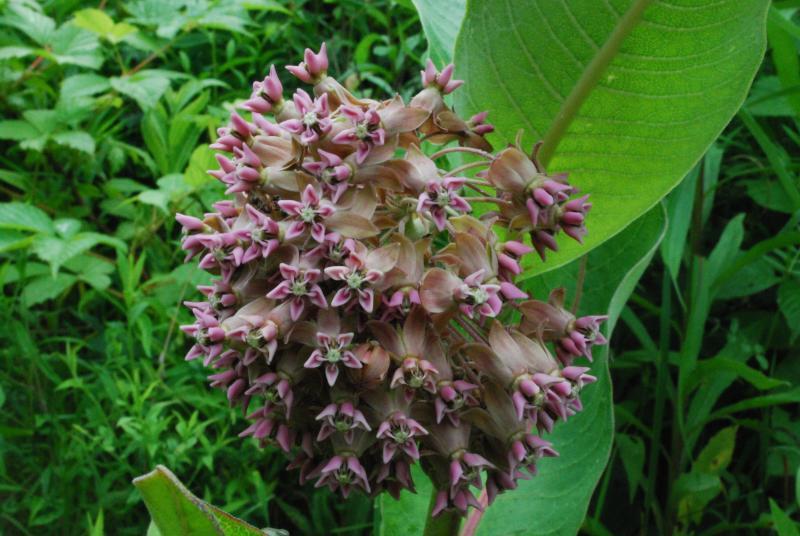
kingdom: Plantae
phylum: Tracheophyta
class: Magnoliopsida
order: Gentianales
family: Apocynaceae
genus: Asclepias
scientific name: Asclepias syriaca
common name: Common milkweed
